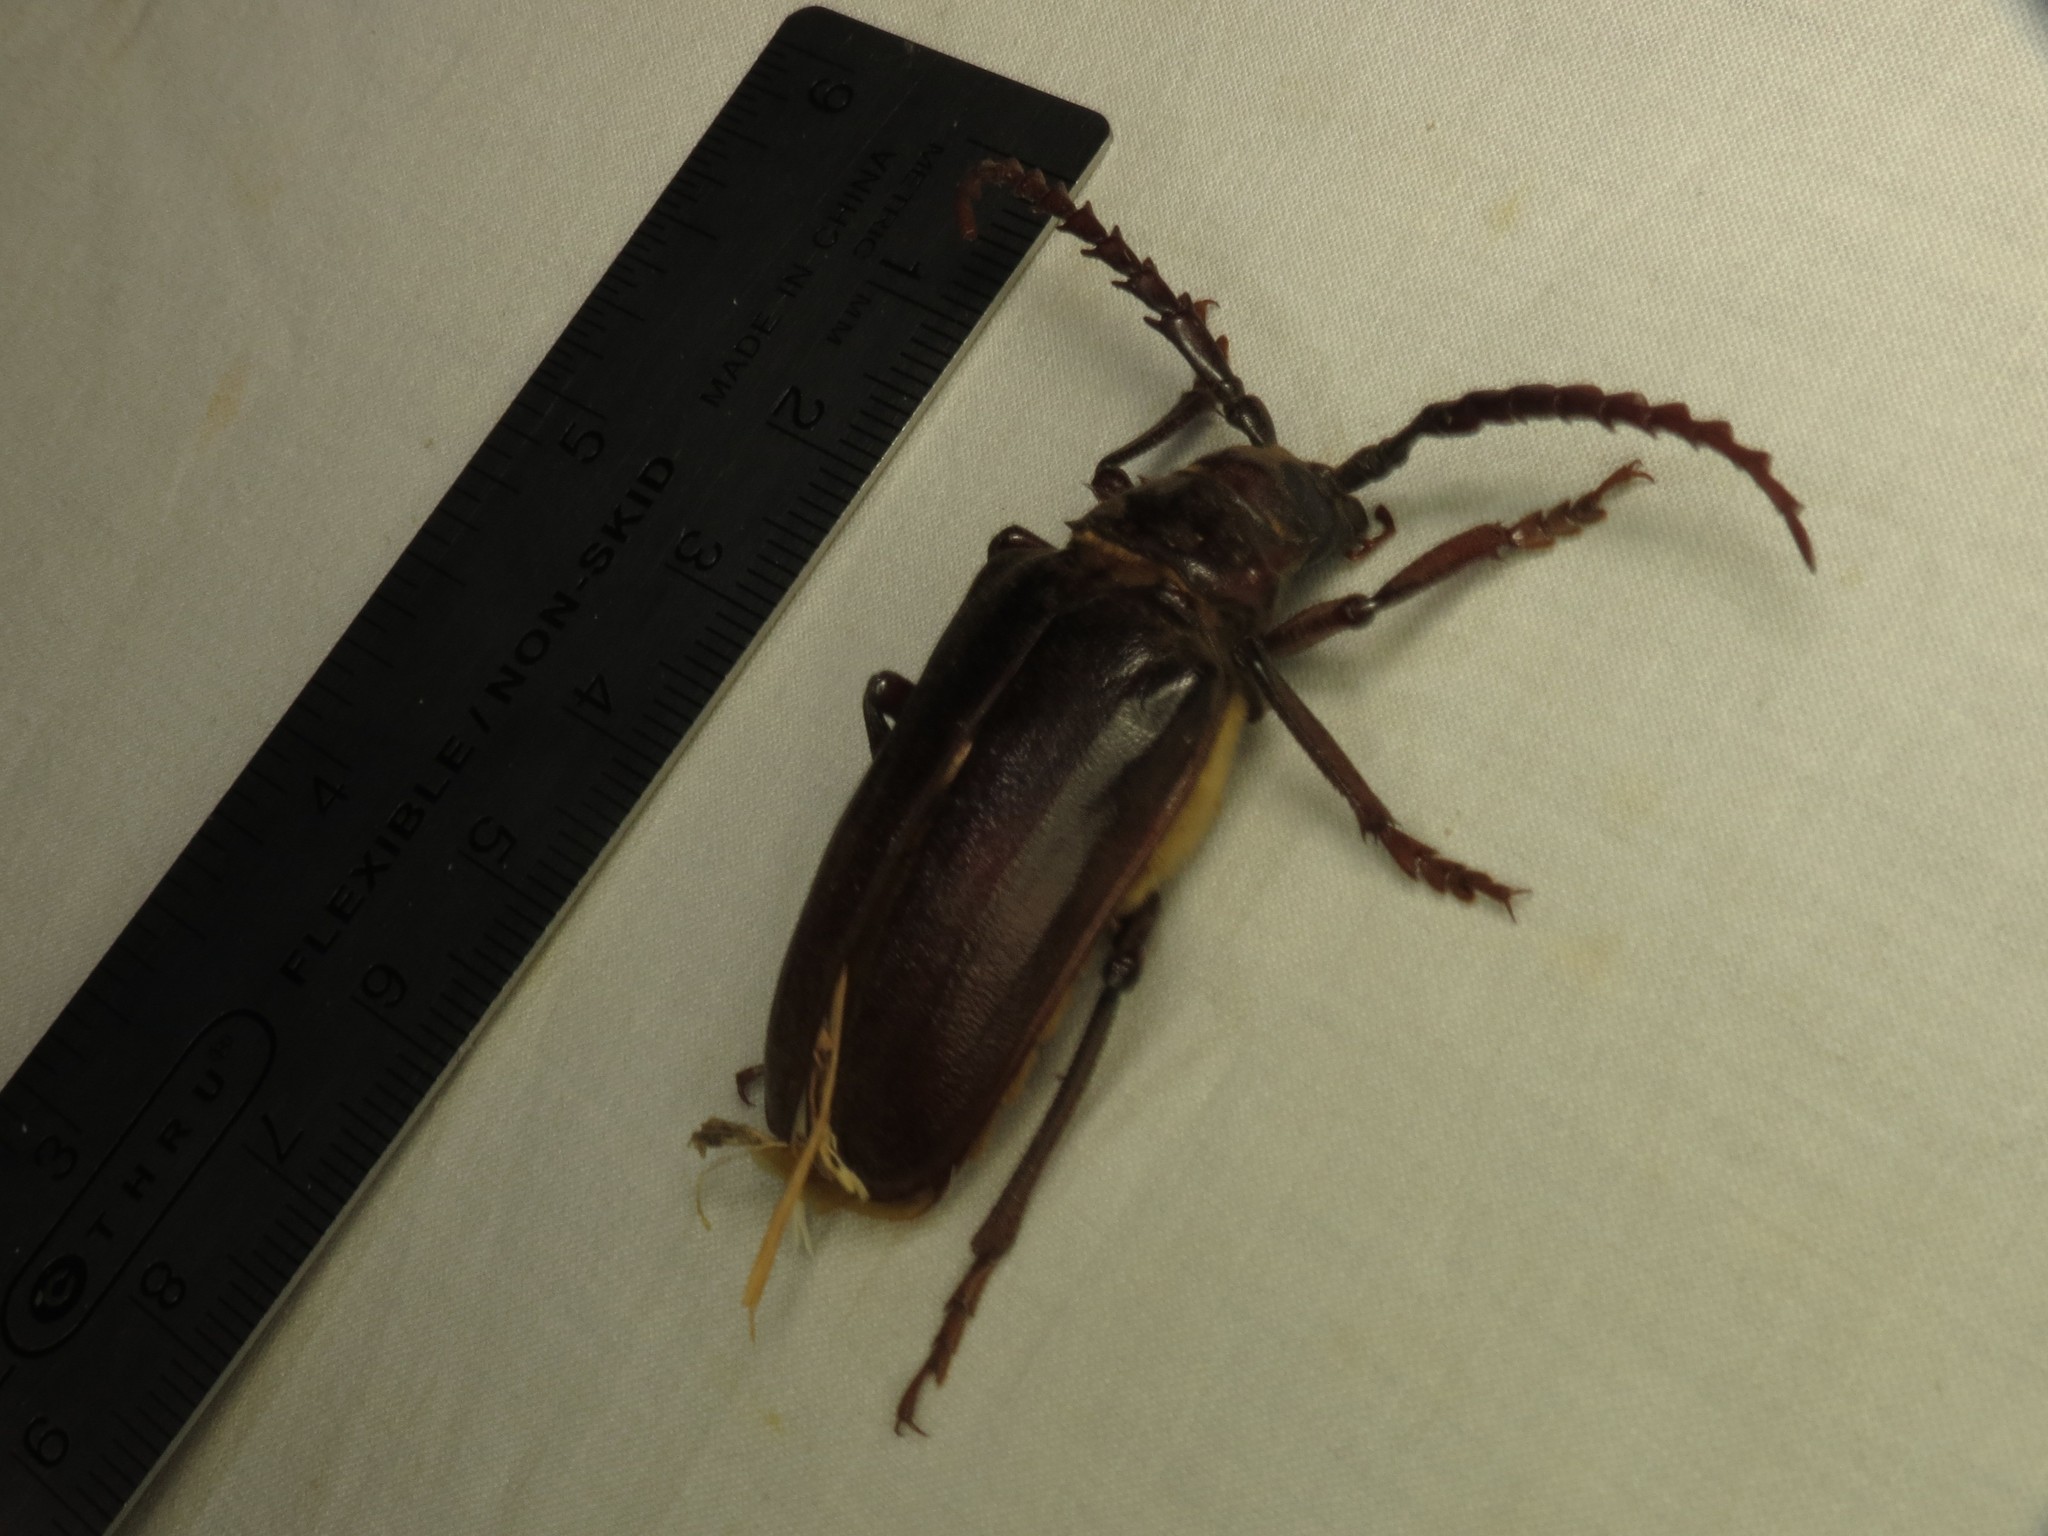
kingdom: Animalia
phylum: Arthropoda
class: Insecta
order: Coleoptera
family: Cerambycidae
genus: Prionus
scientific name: Prionus californicus
